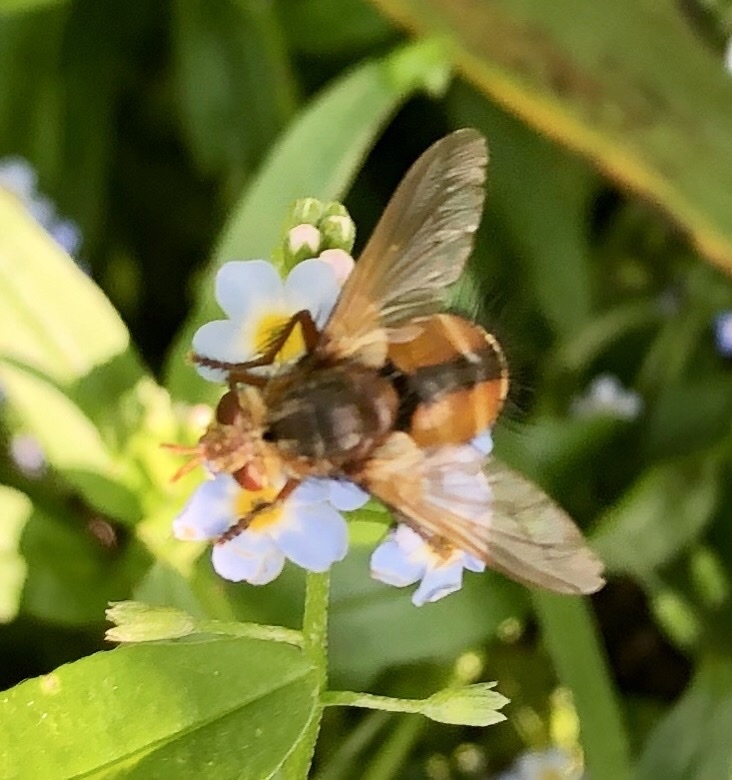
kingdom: Animalia
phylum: Arthropoda
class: Insecta
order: Diptera
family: Tachinidae
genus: Tachina
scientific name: Tachina fera
